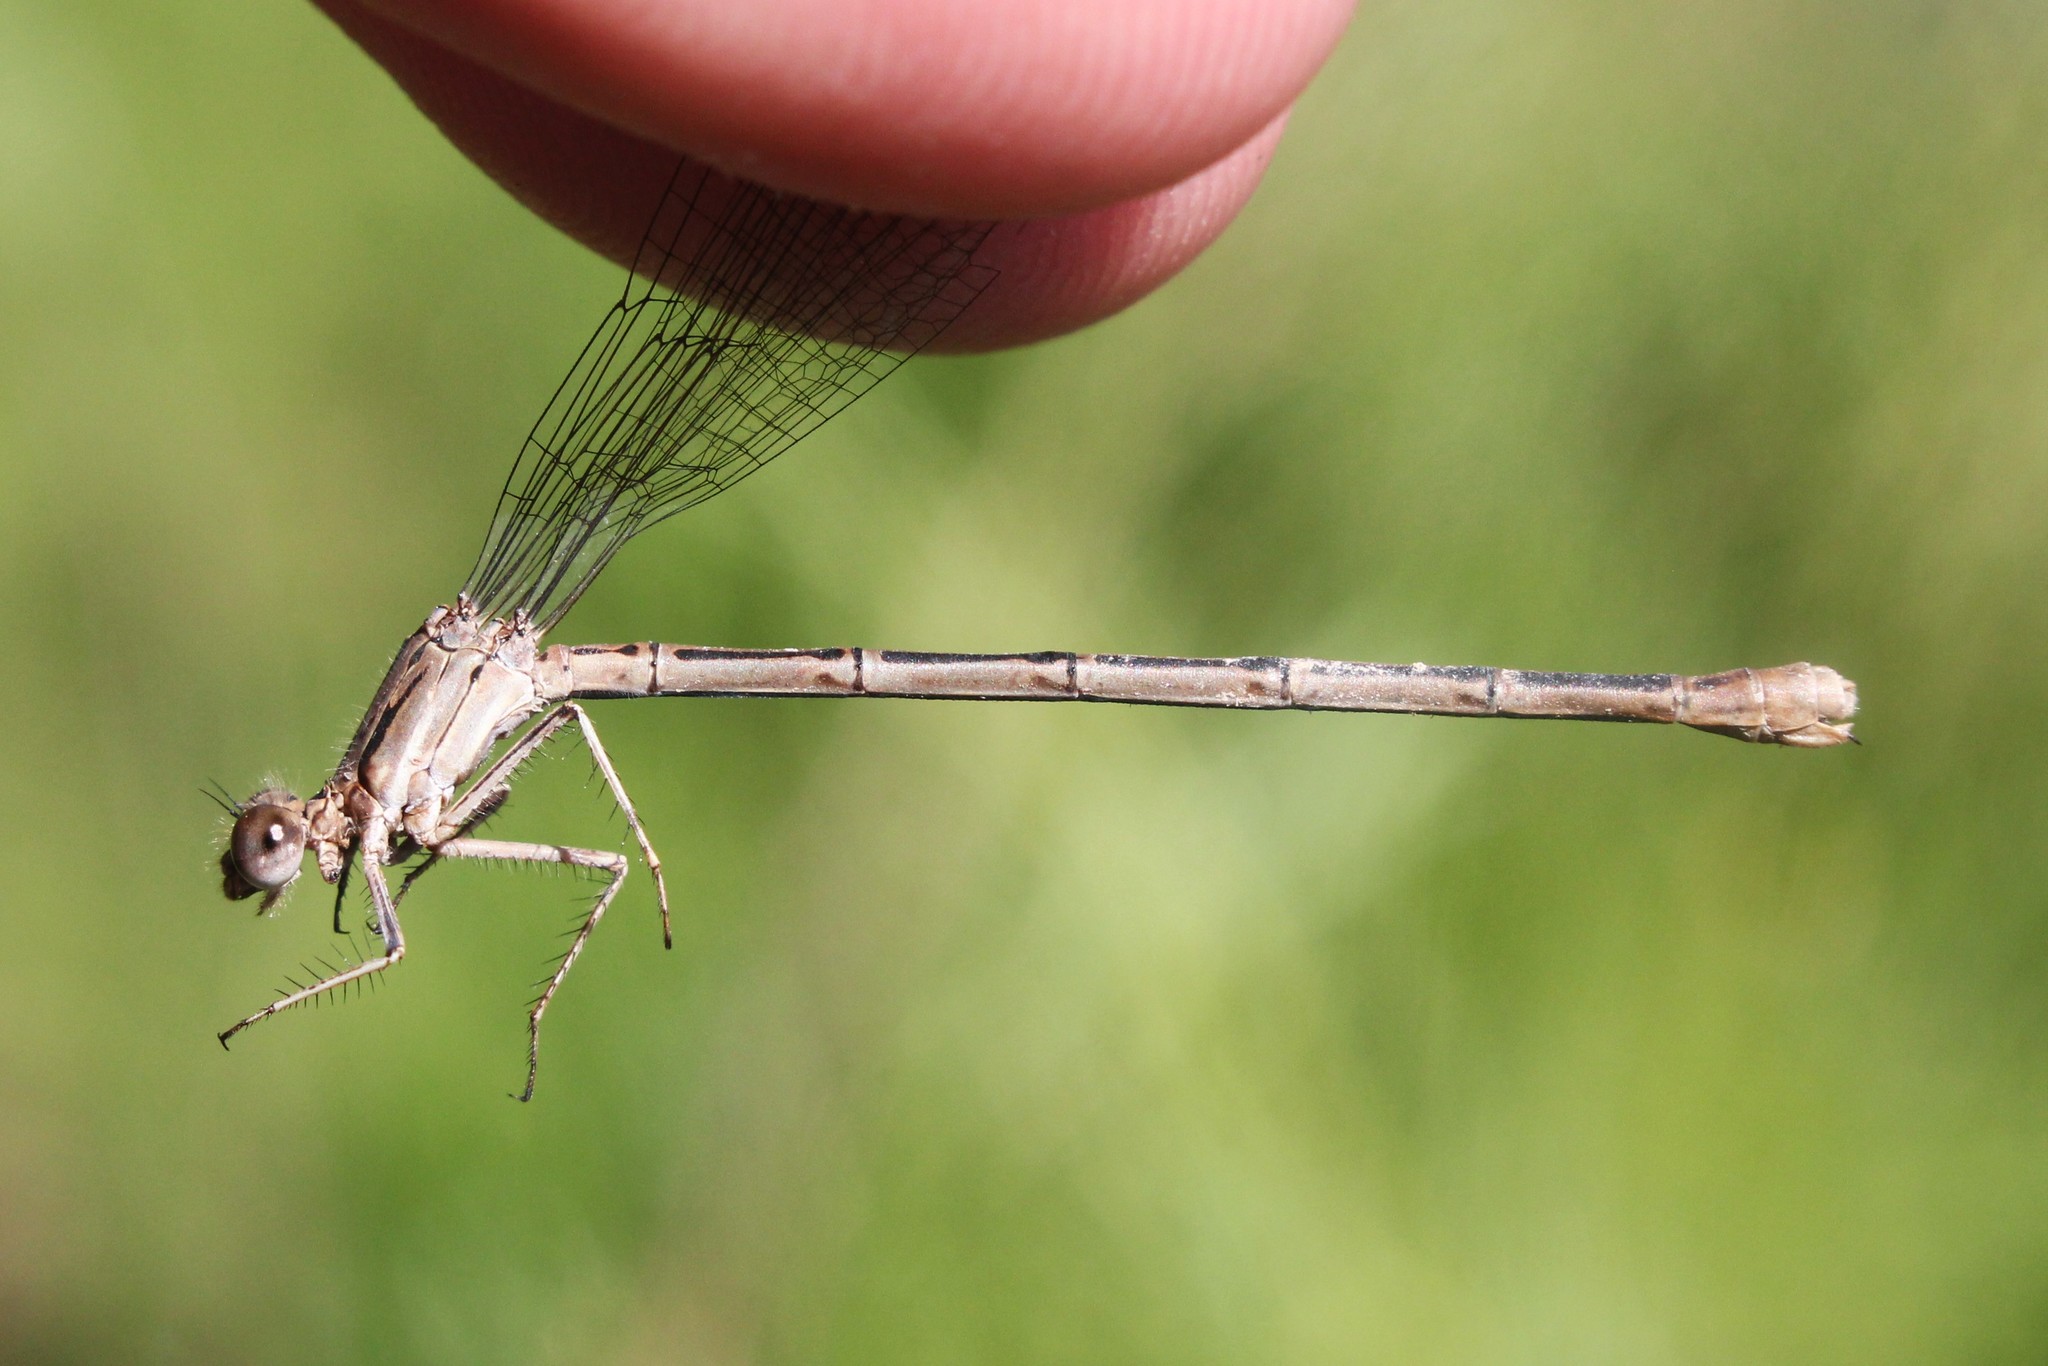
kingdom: Animalia
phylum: Arthropoda
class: Insecta
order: Odonata
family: Coenagrionidae
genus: Argia
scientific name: Argia fumipennis
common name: Variable dancer
